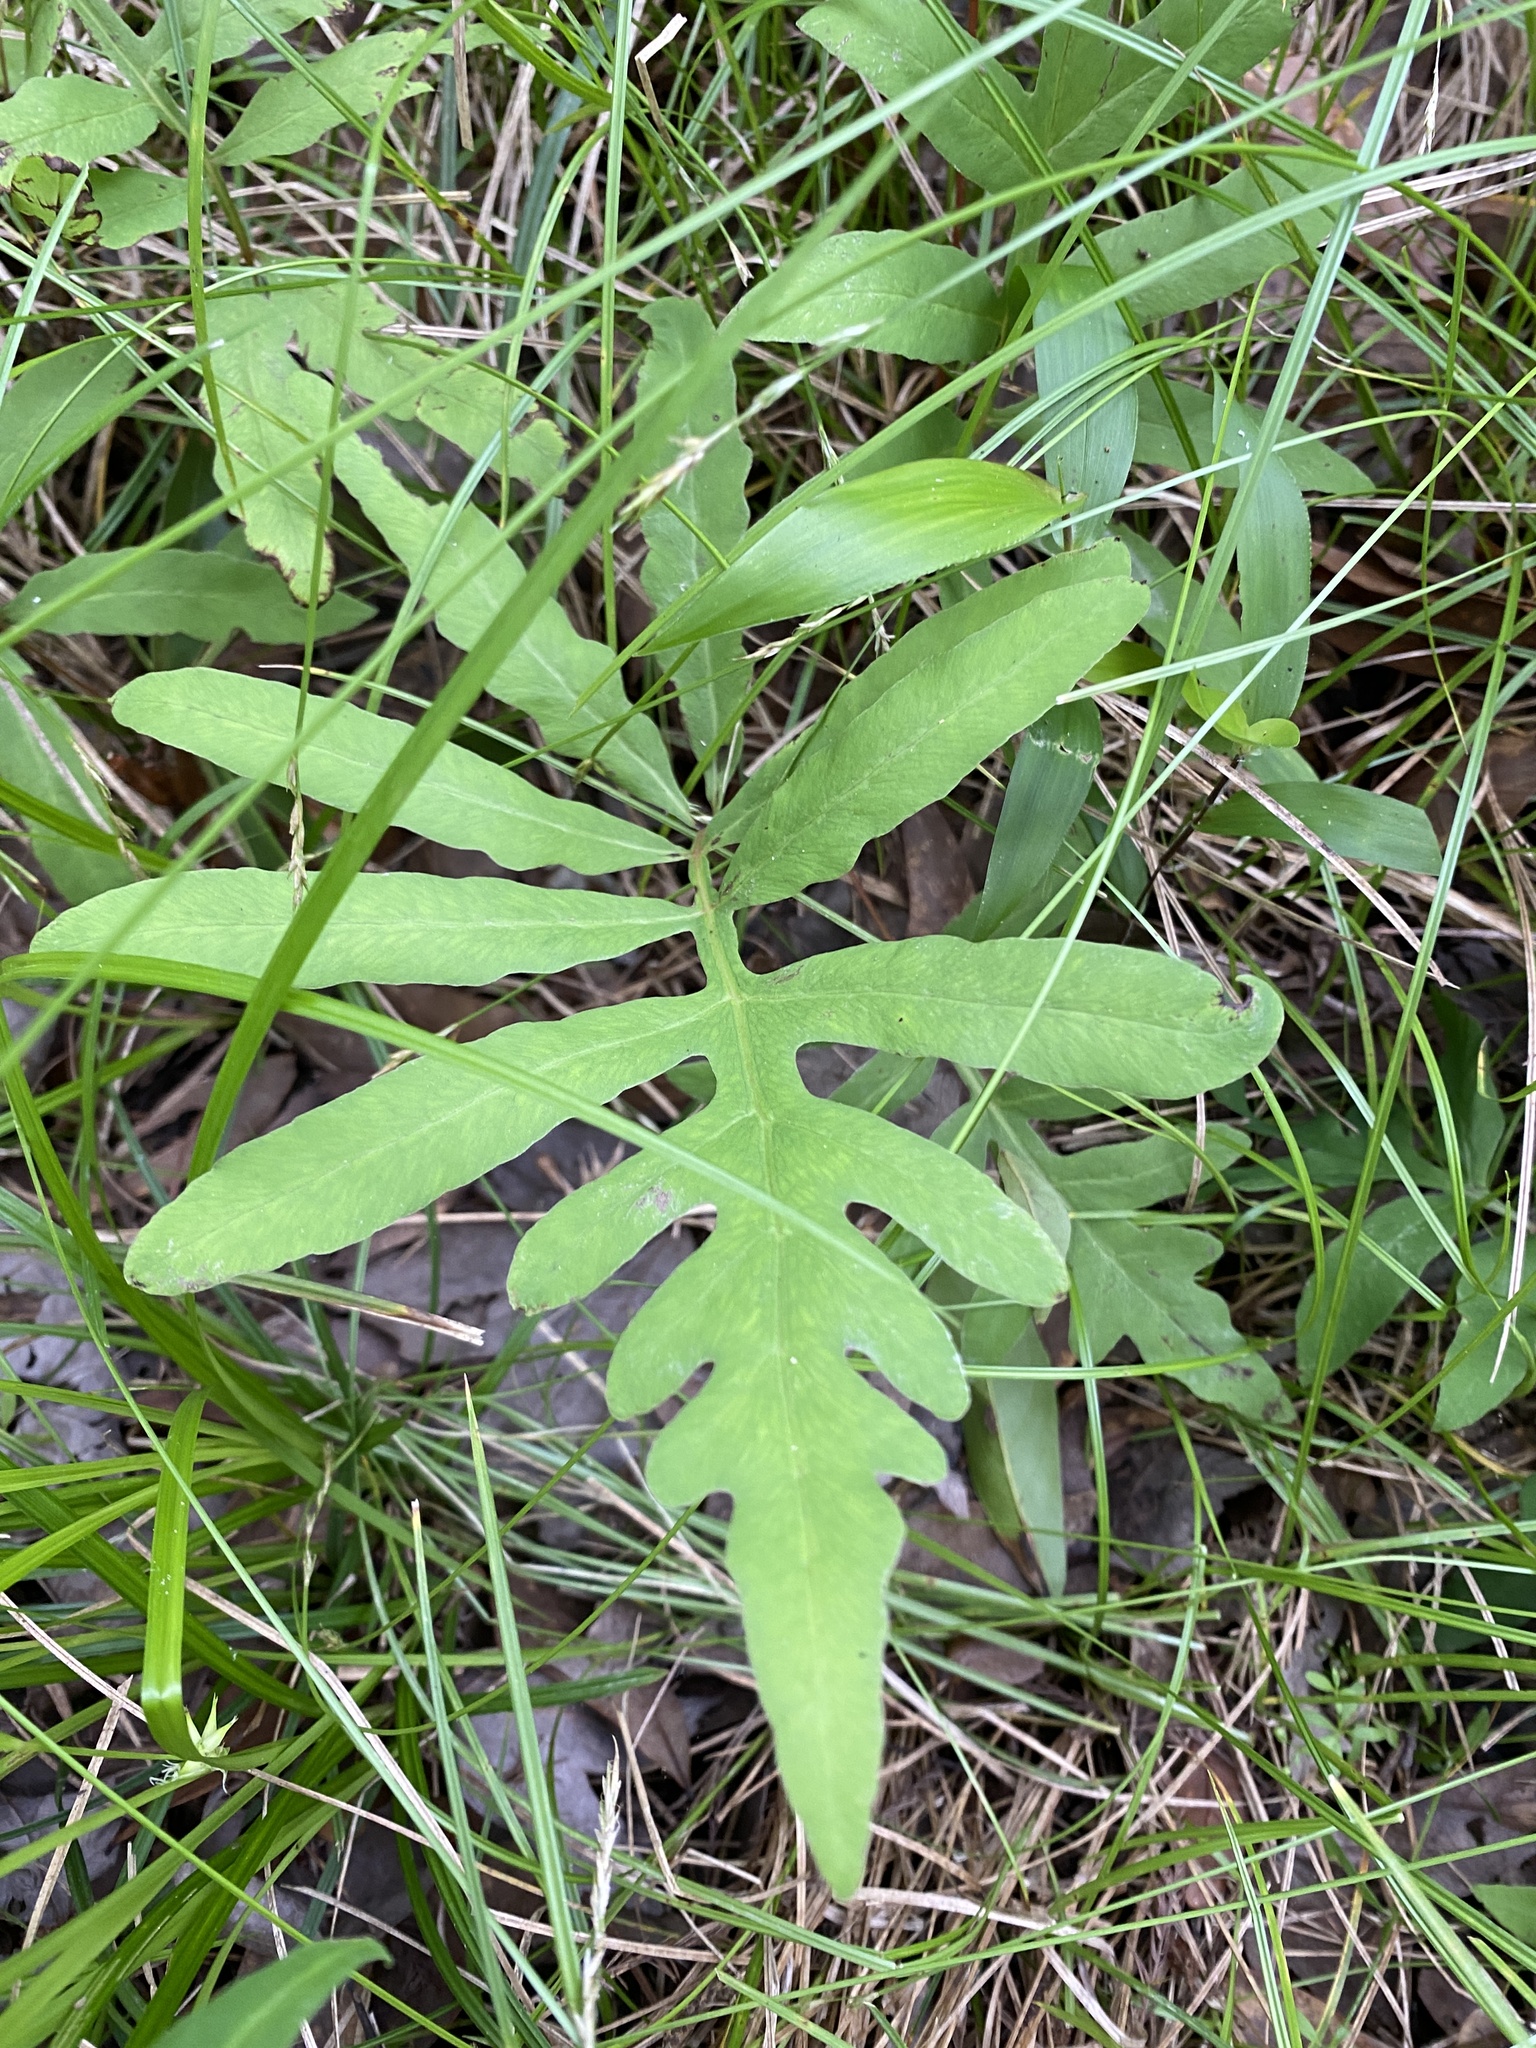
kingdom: Plantae
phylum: Tracheophyta
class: Polypodiopsida
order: Polypodiales
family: Onocleaceae
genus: Onoclea
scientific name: Onoclea sensibilis
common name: Sensitive fern
